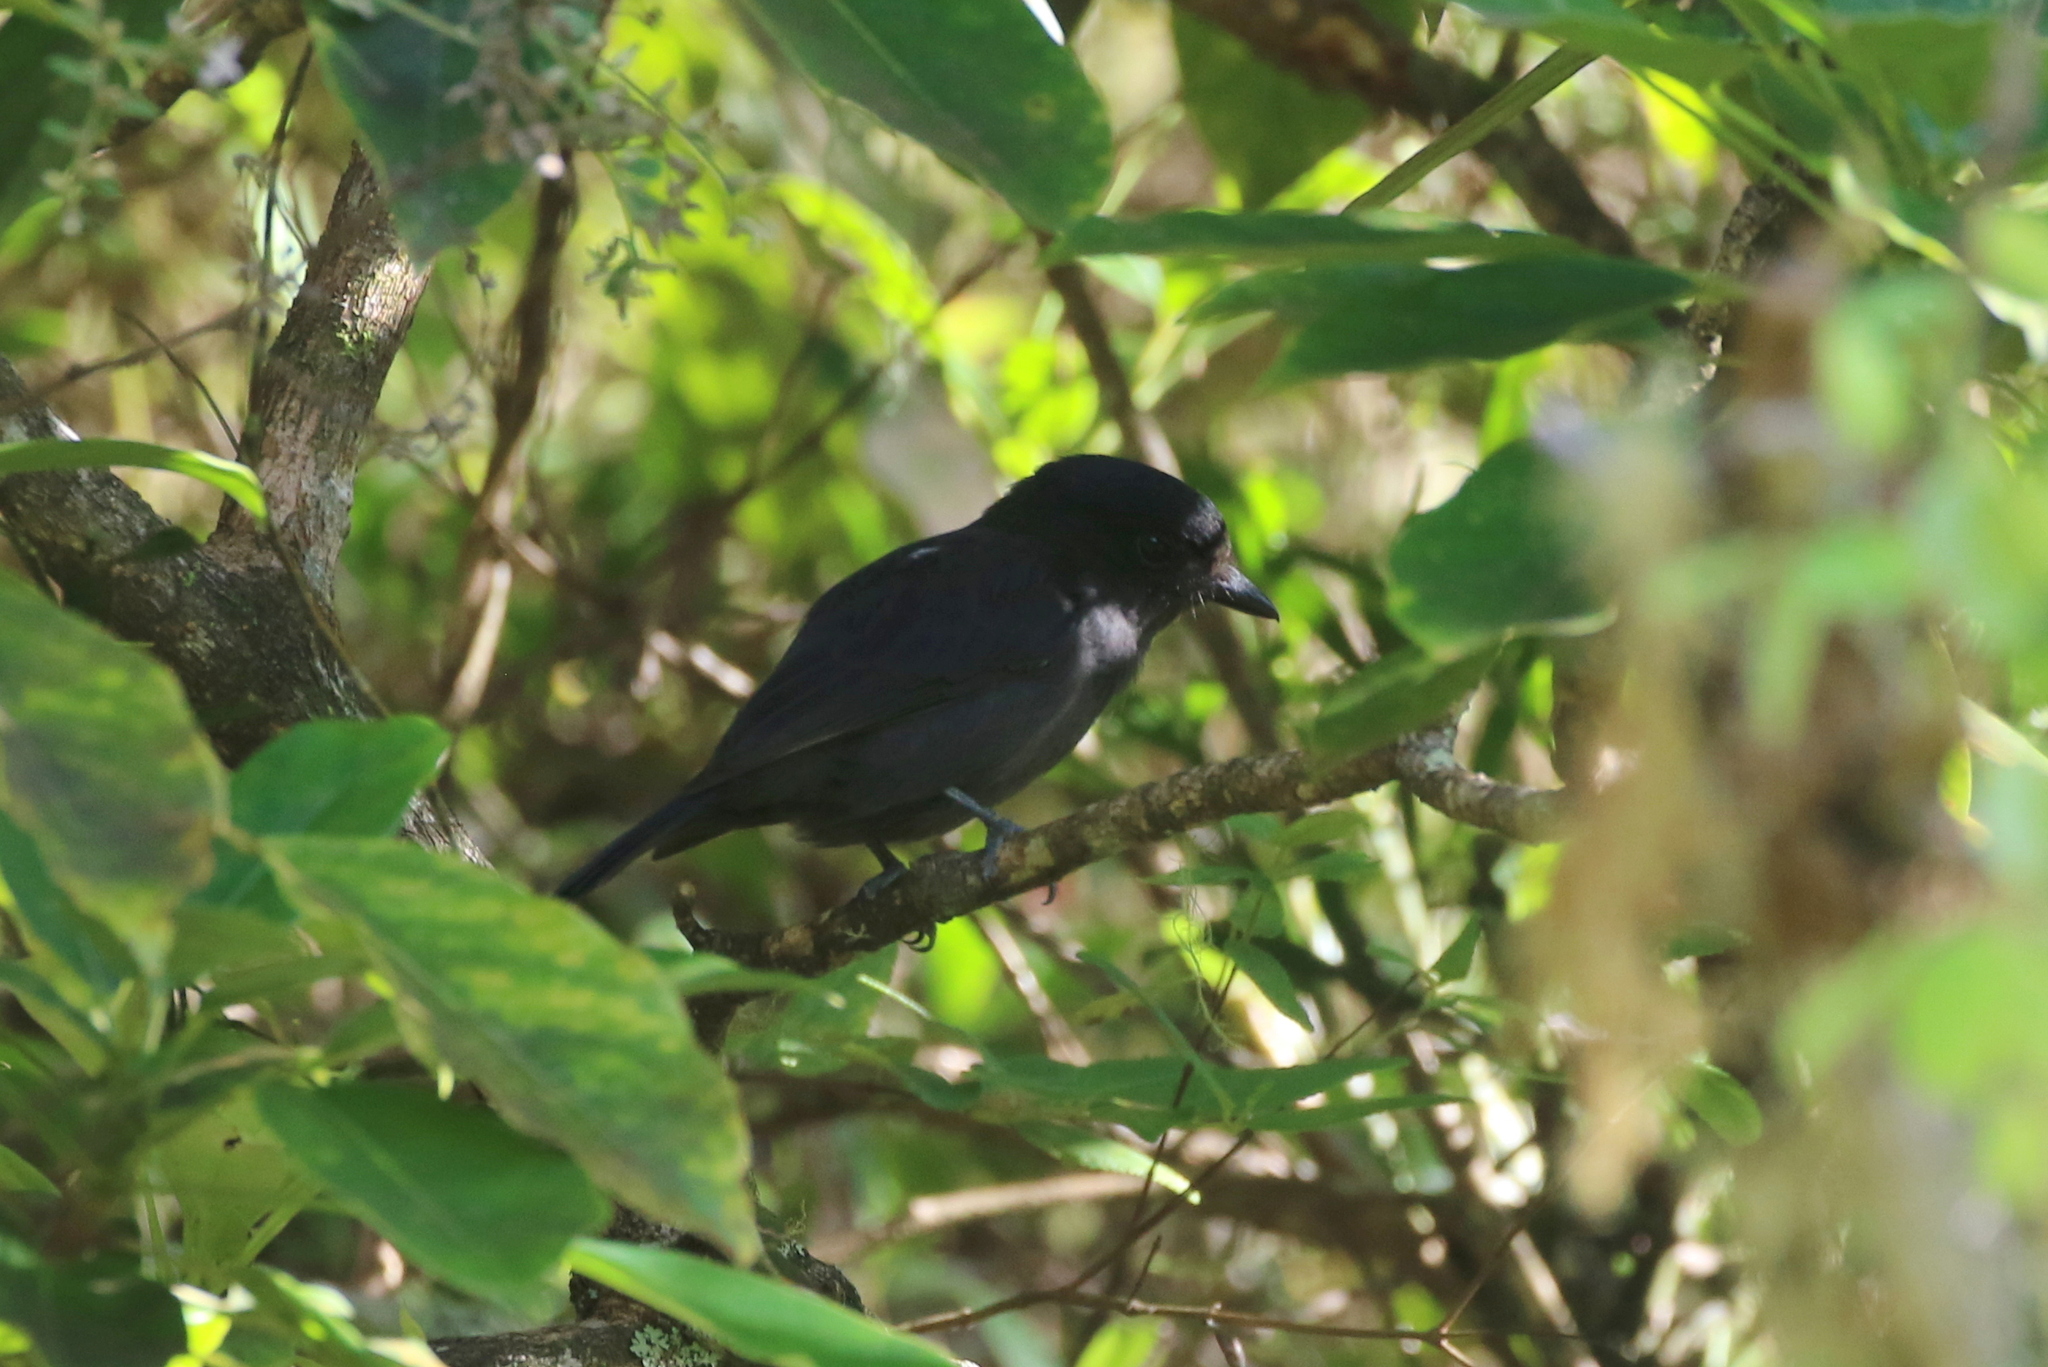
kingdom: Animalia
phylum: Chordata
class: Aves
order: Passeriformes
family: Cotingidae
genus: Pachyramphus
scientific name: Pachyramphus niger
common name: Jamaican becard
